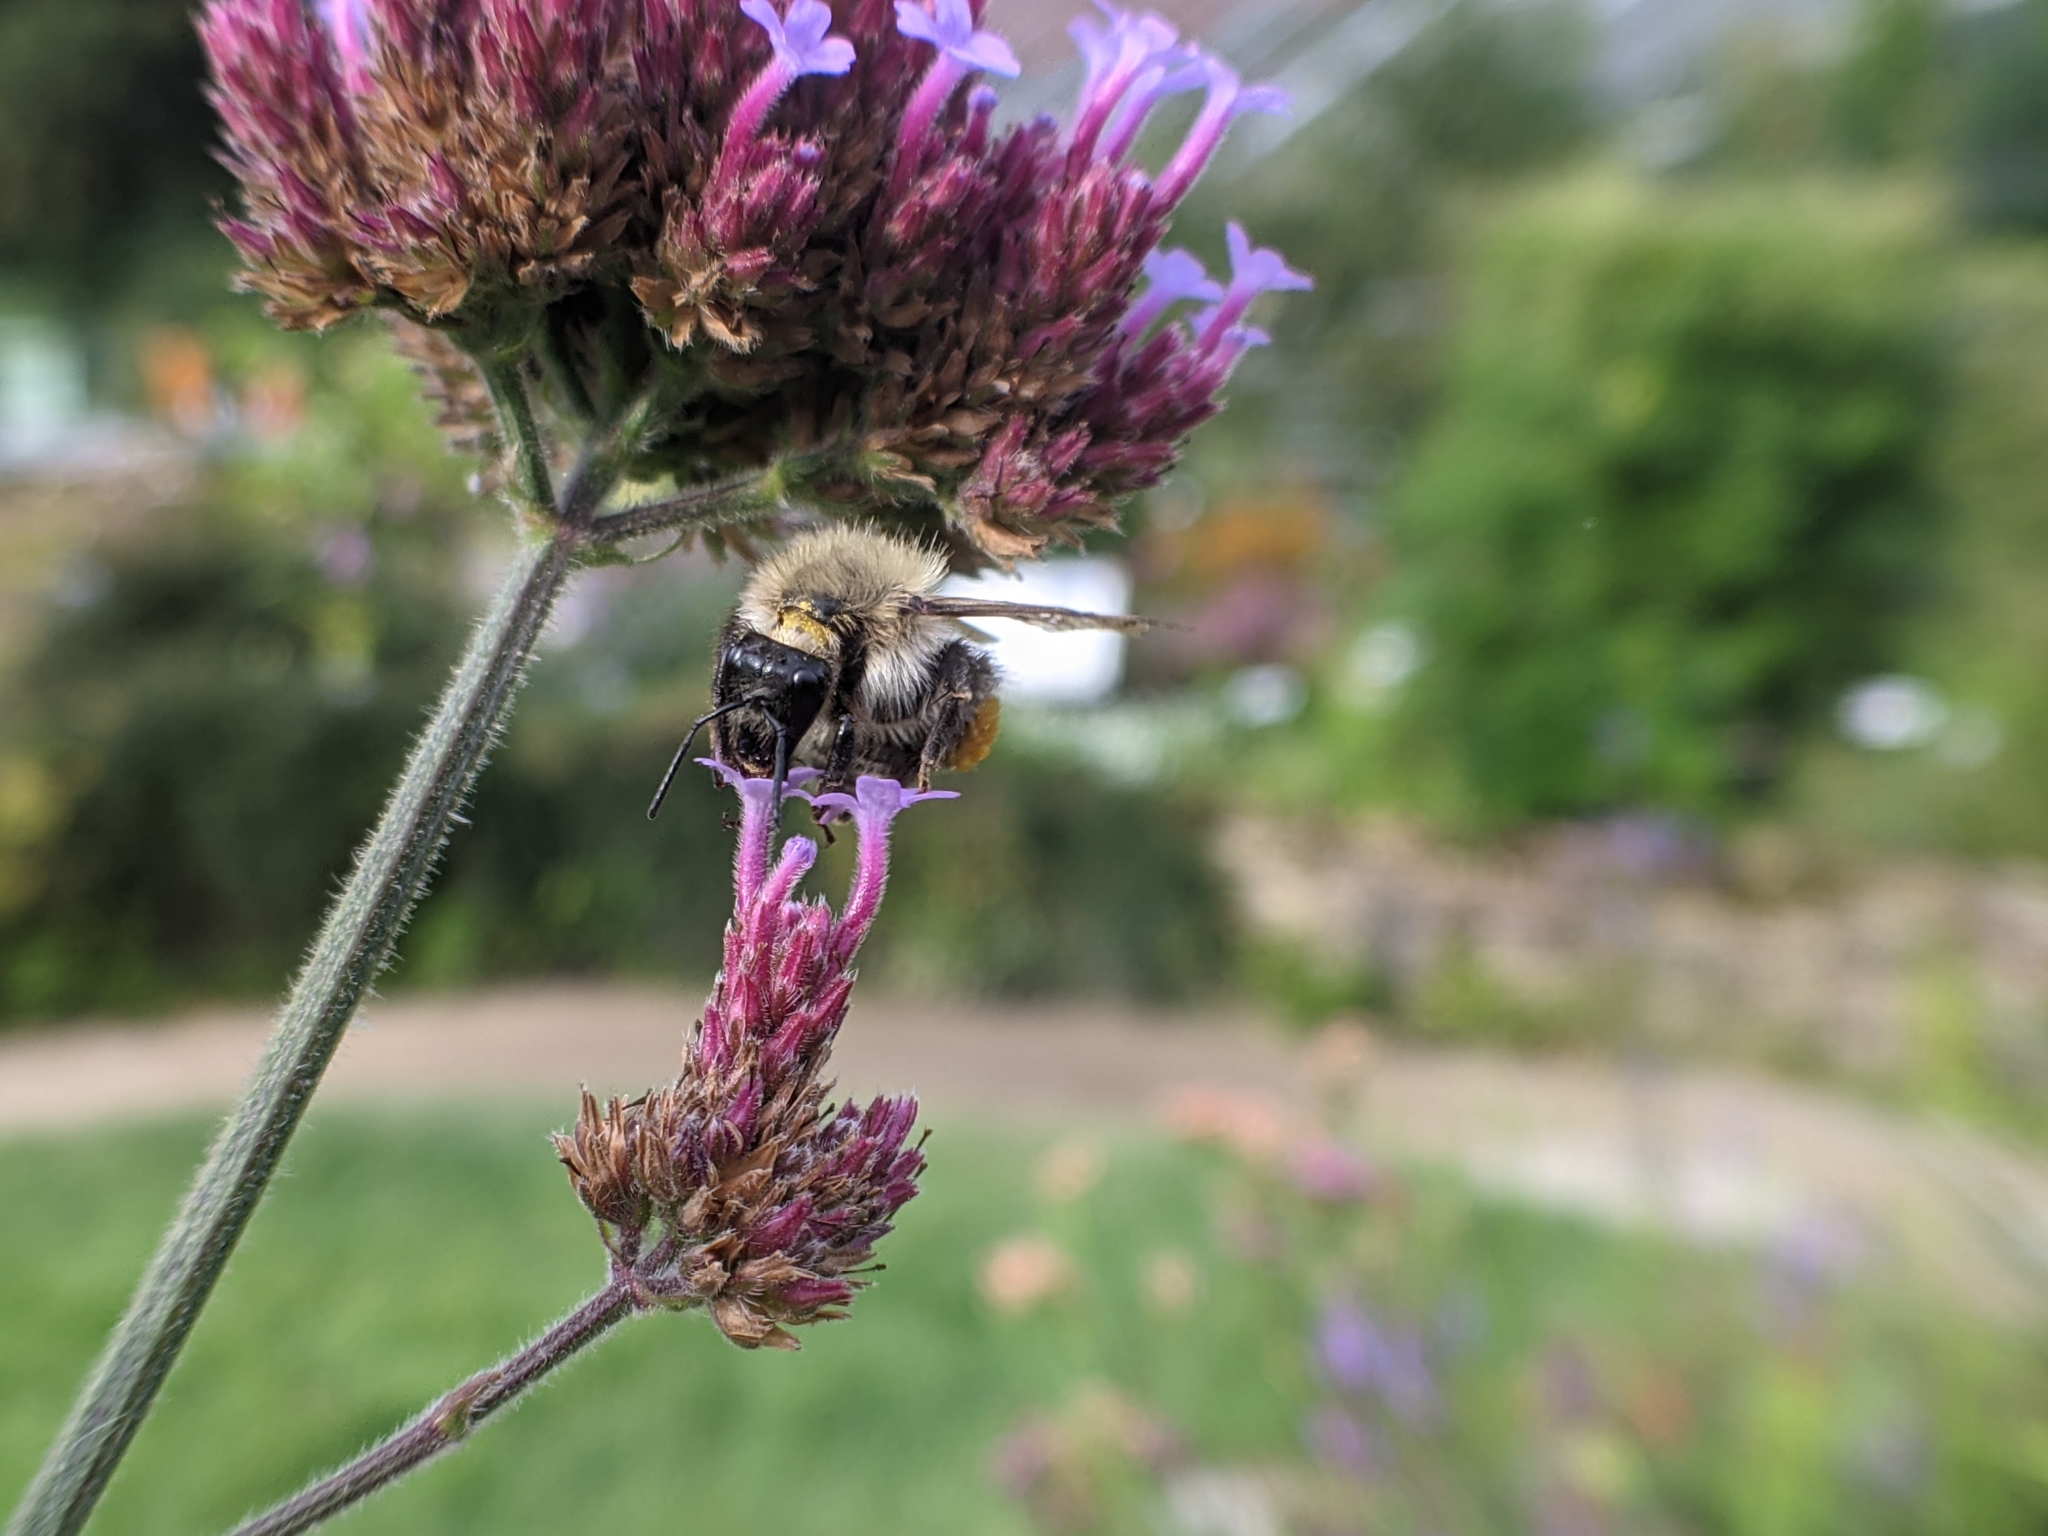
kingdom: Animalia
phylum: Arthropoda
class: Insecta
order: Hymenoptera
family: Apidae
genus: Bombus
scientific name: Bombus pascuorum
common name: Common carder bee
